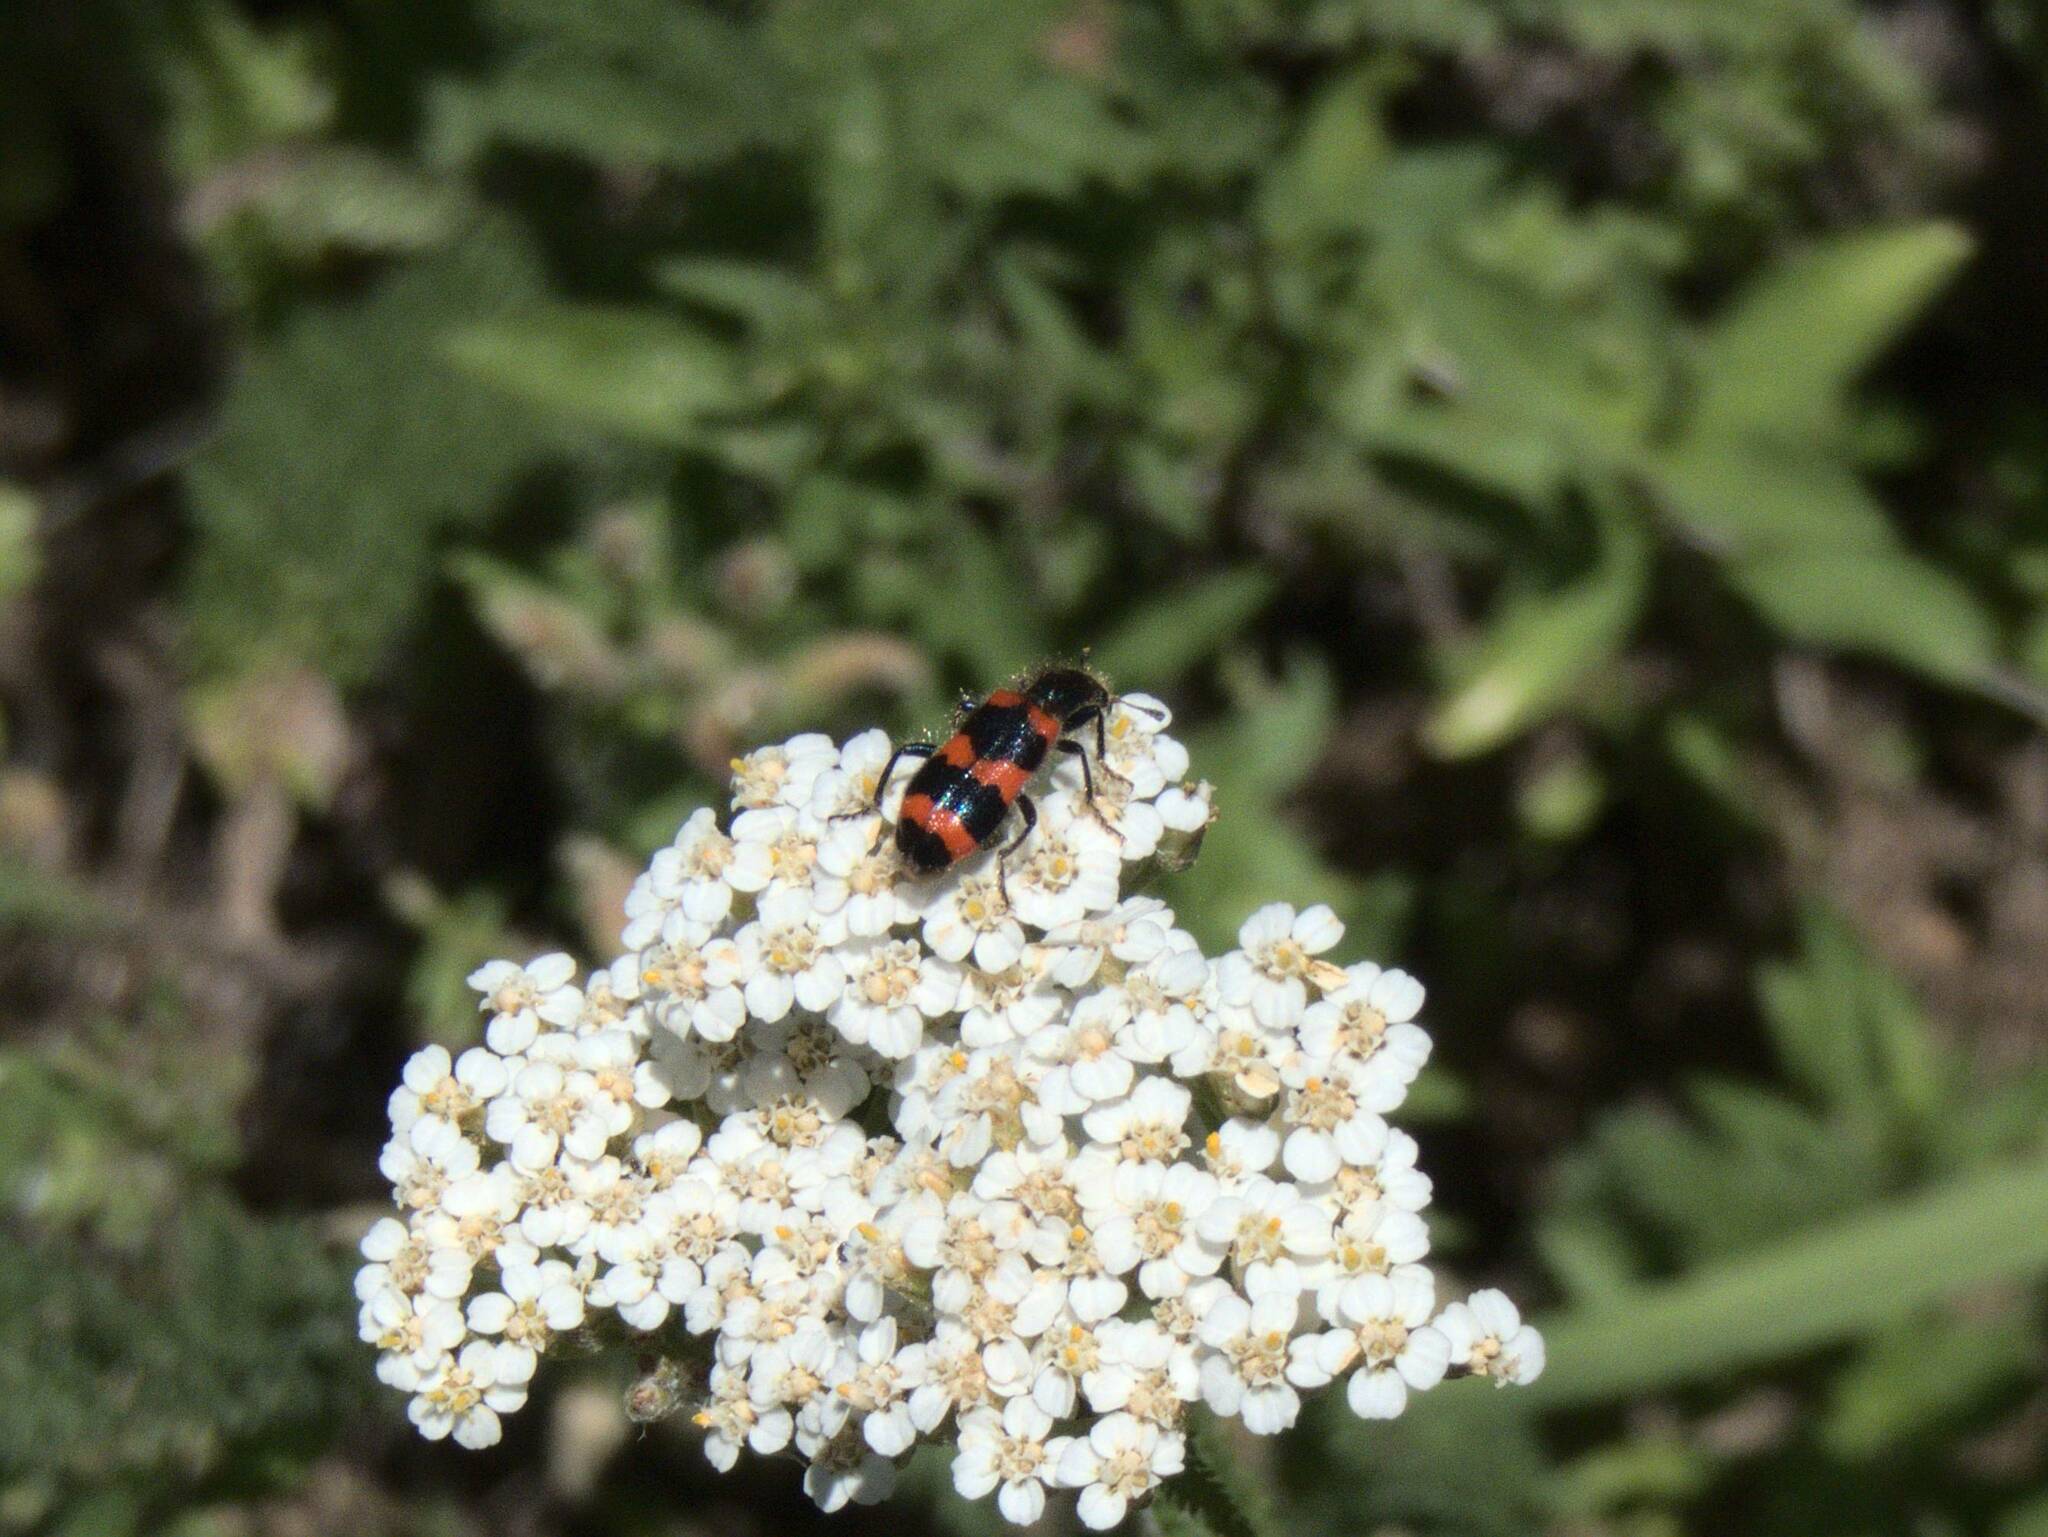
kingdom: Animalia
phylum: Arthropoda
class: Insecta
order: Coleoptera
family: Cleridae
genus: Trichodes
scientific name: Trichodes apiarius
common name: Bee-eating beetle
